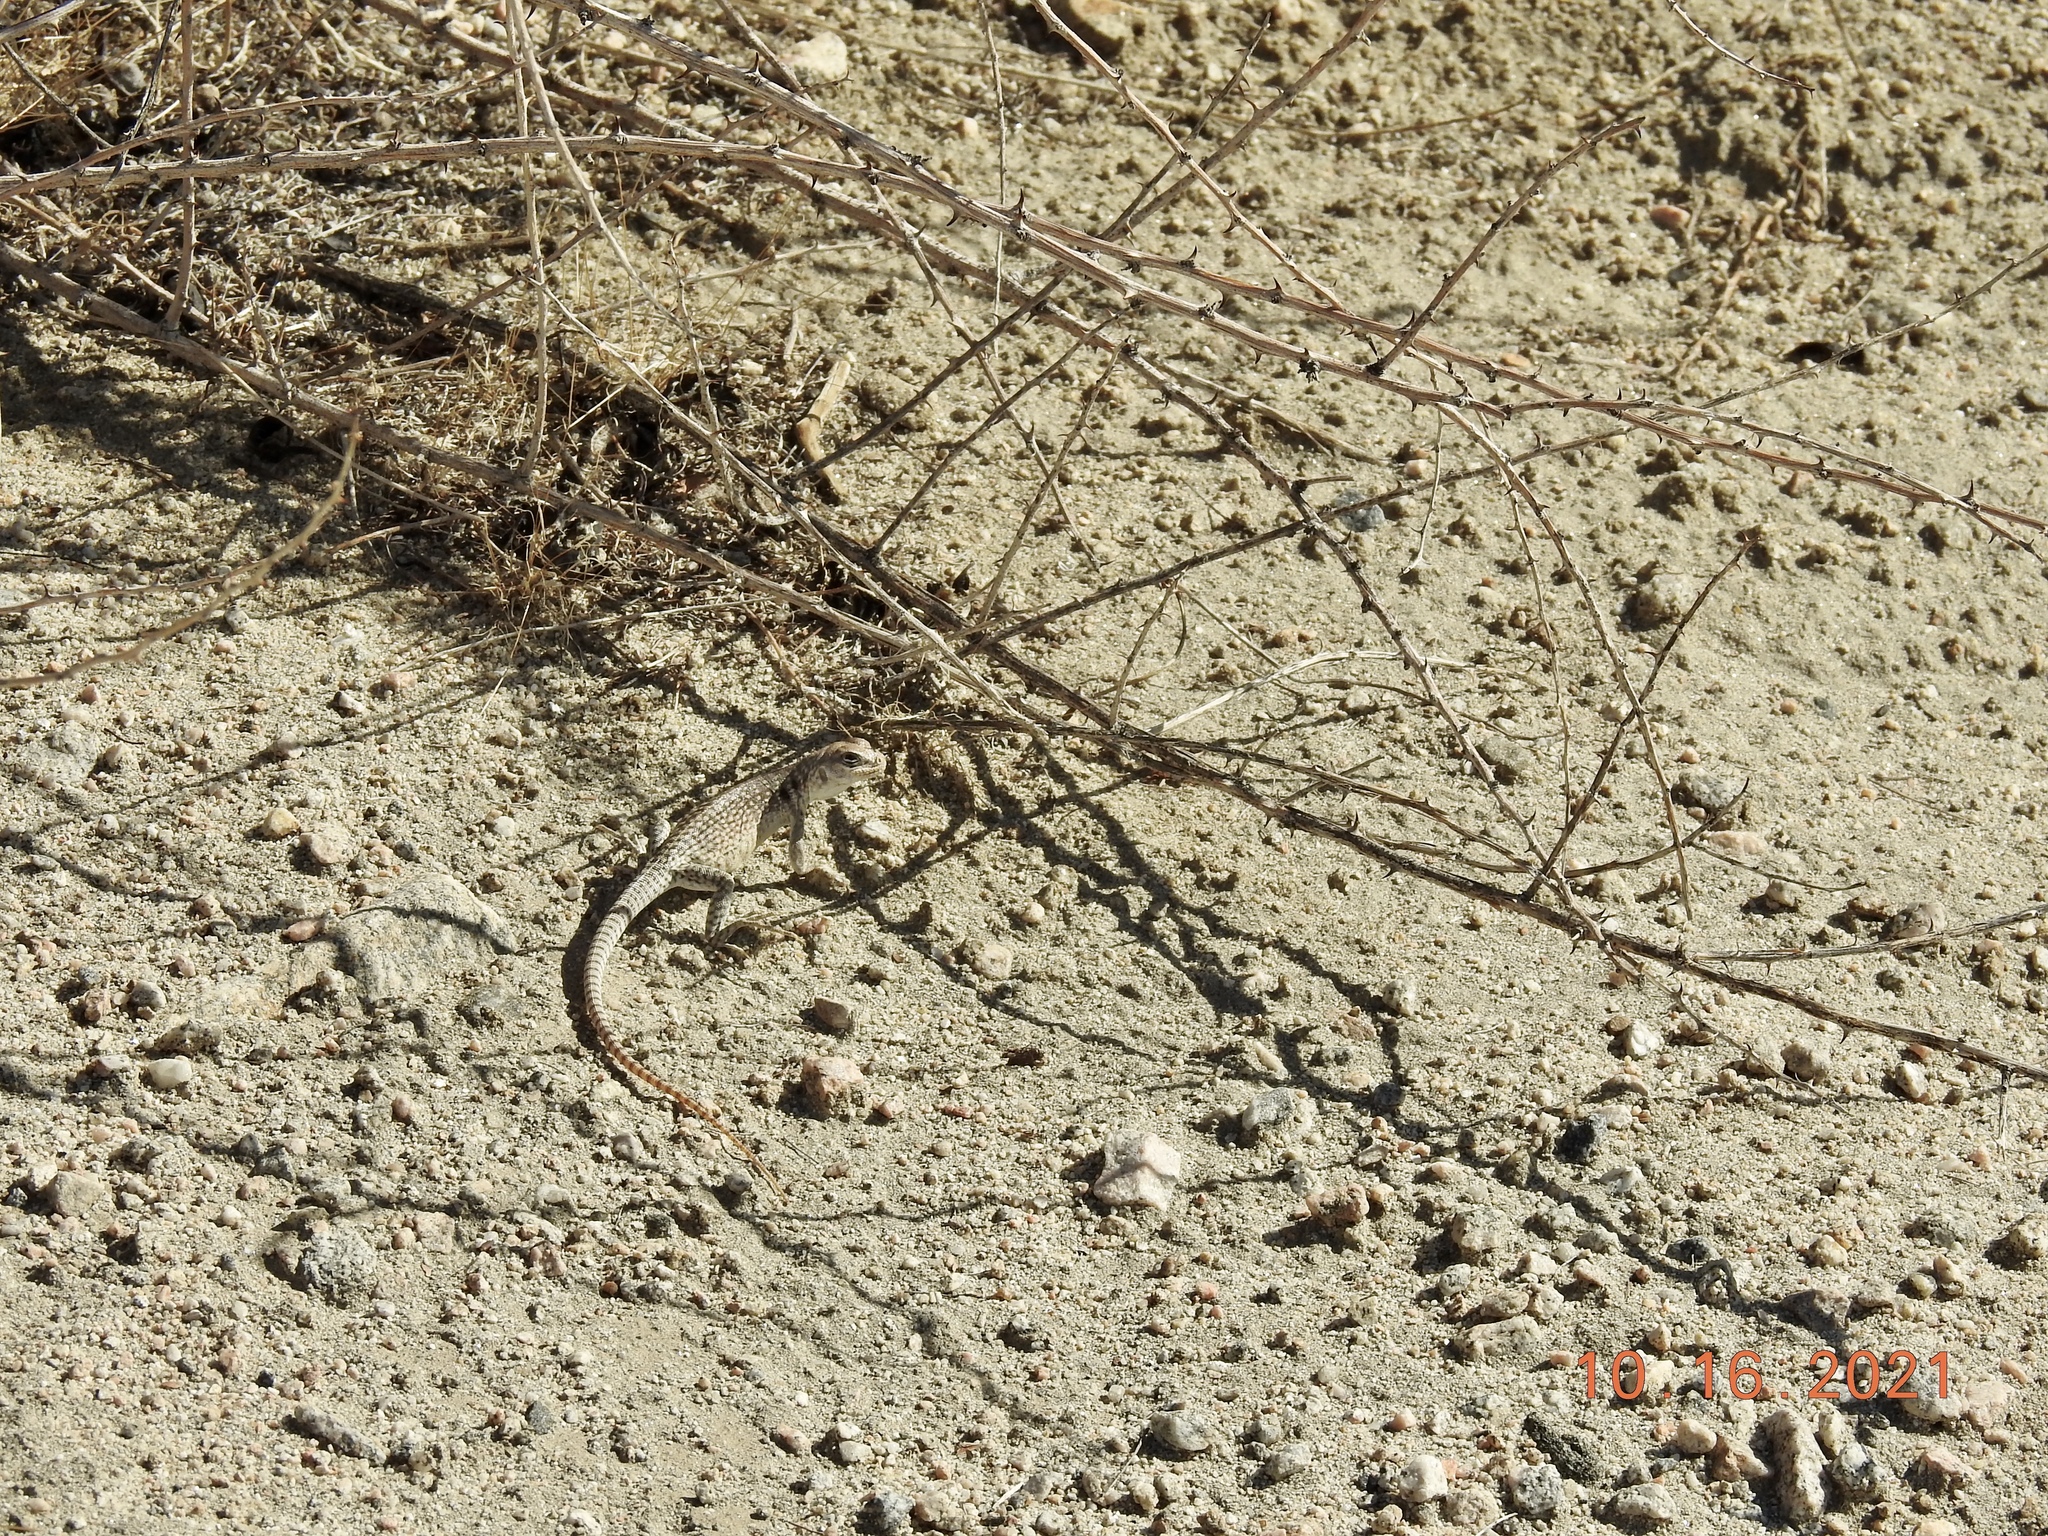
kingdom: Animalia
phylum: Chordata
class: Squamata
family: Iguanidae
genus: Dipsosaurus
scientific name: Dipsosaurus dorsalis
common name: Desert iguana
